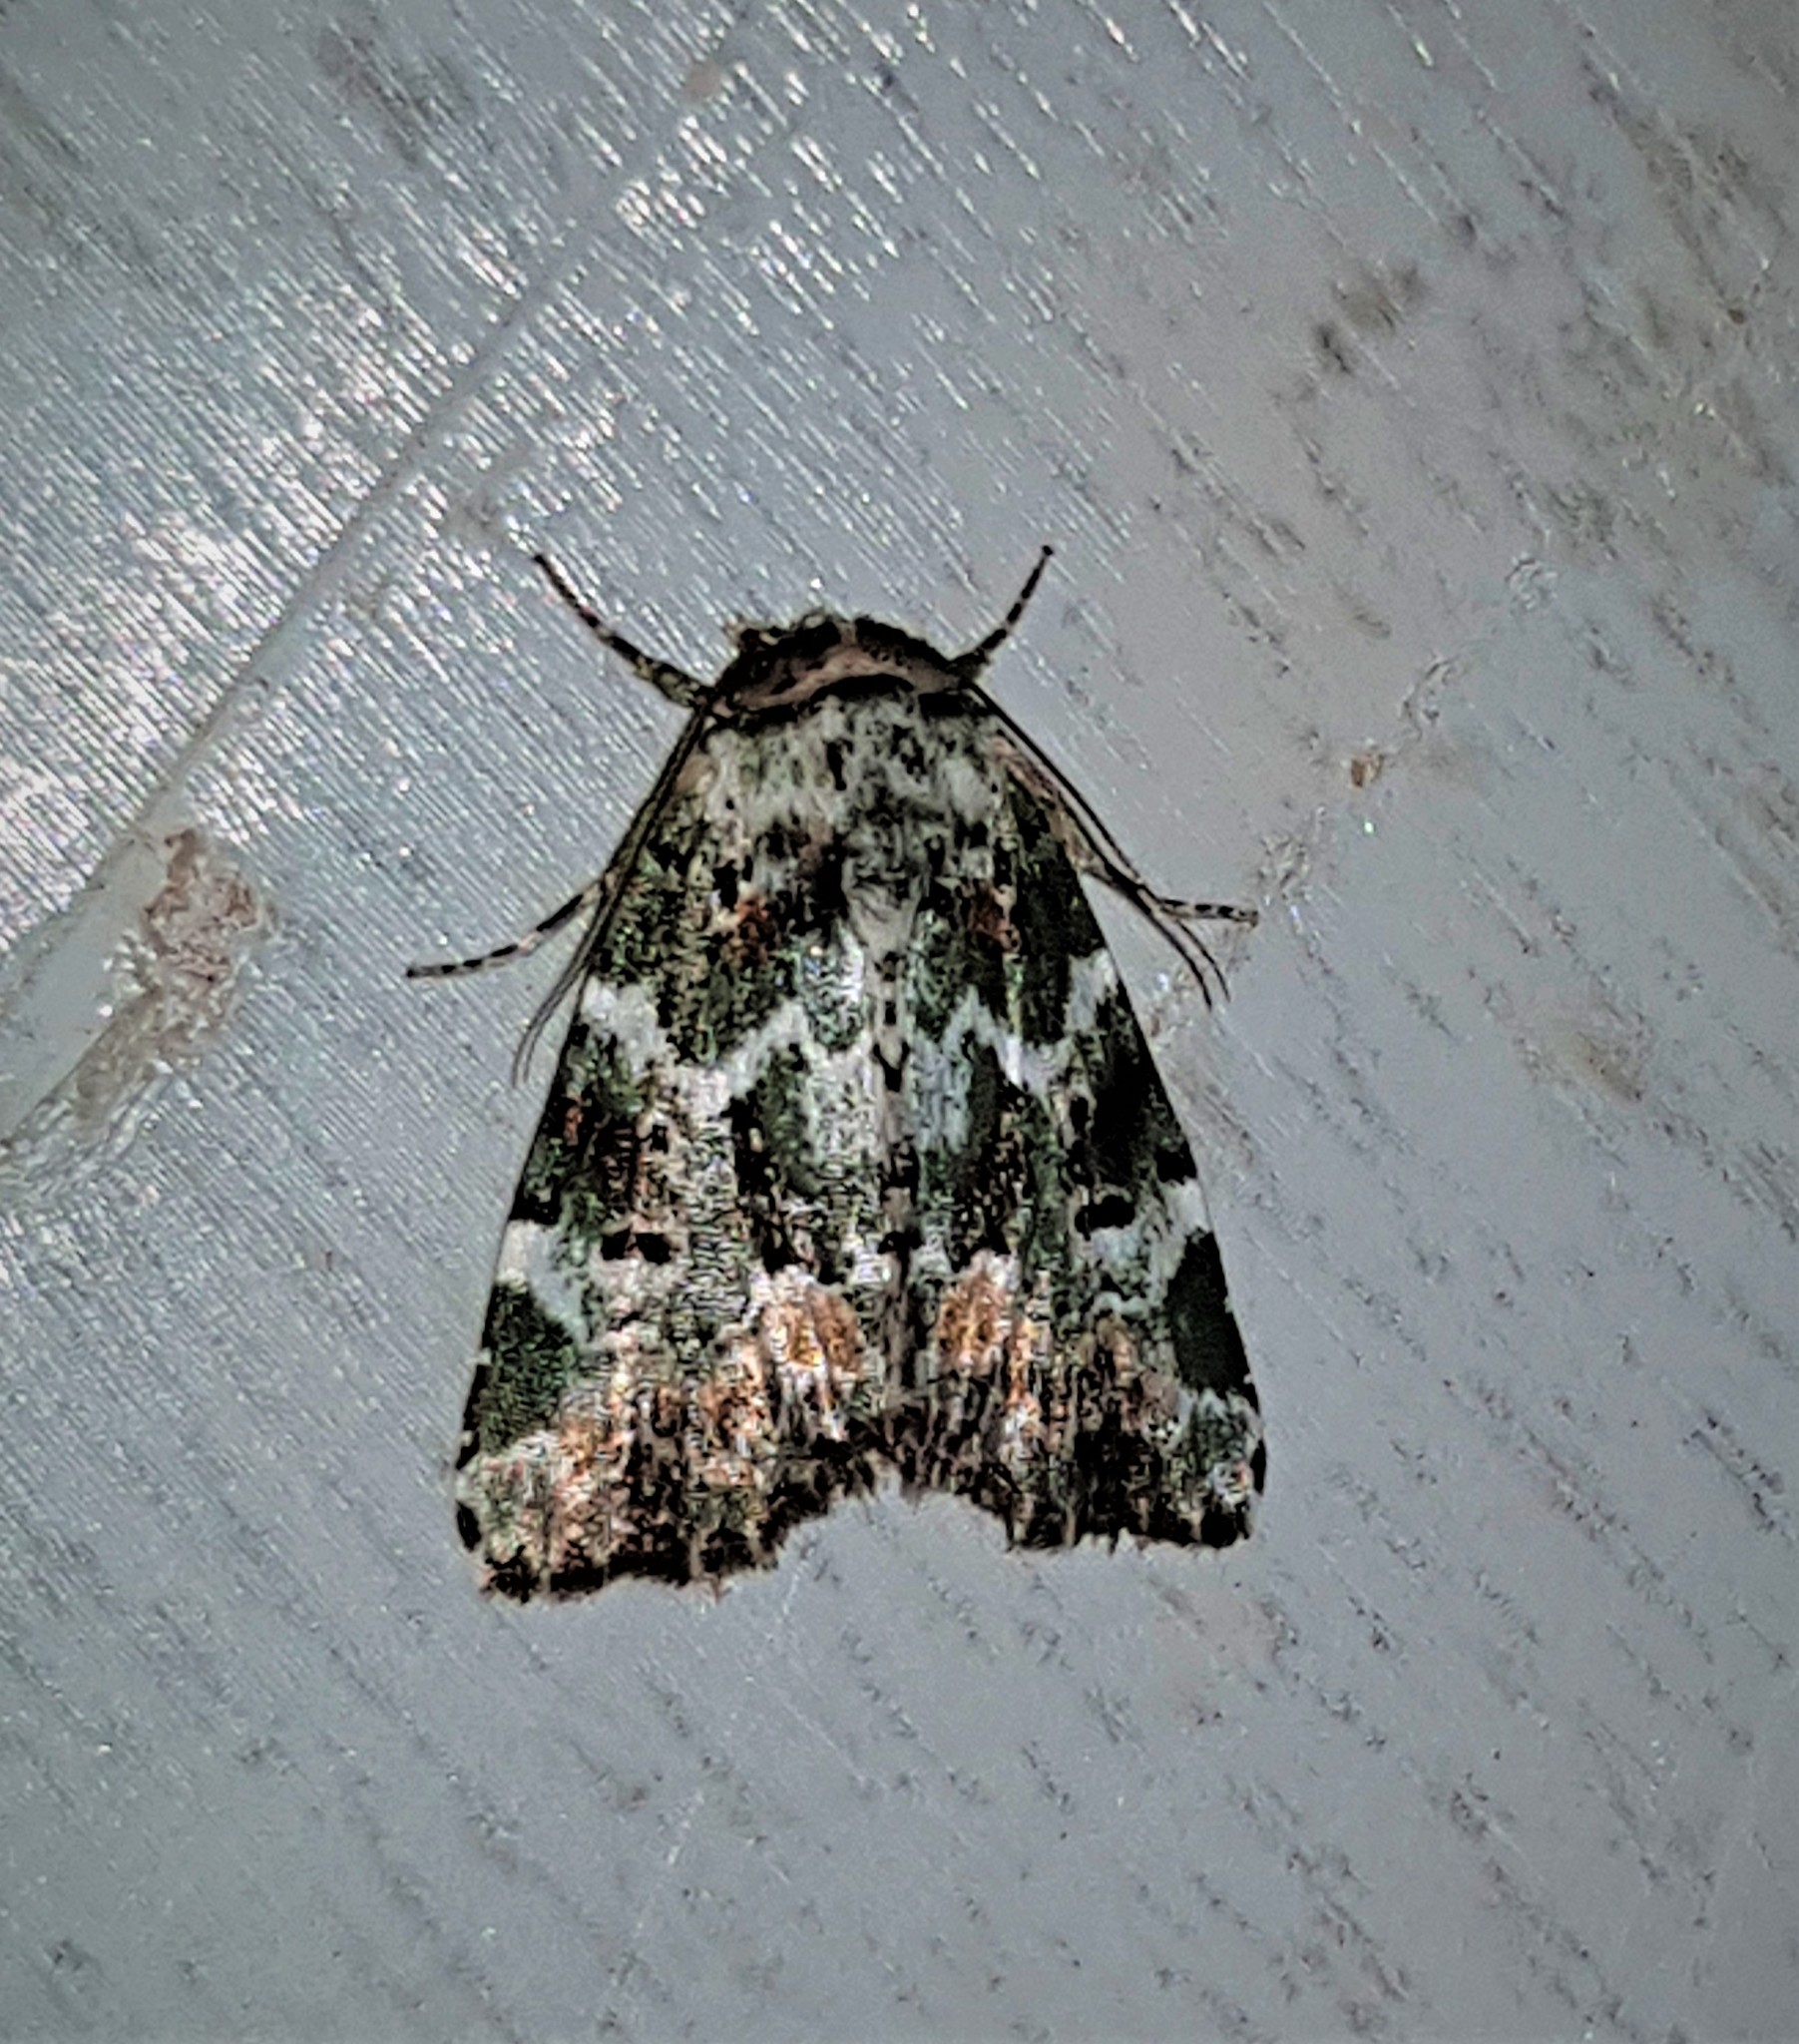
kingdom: Animalia
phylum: Arthropoda
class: Insecta
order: Lepidoptera
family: Noctuidae
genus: Chytonix
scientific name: Chytonix mniochroa
